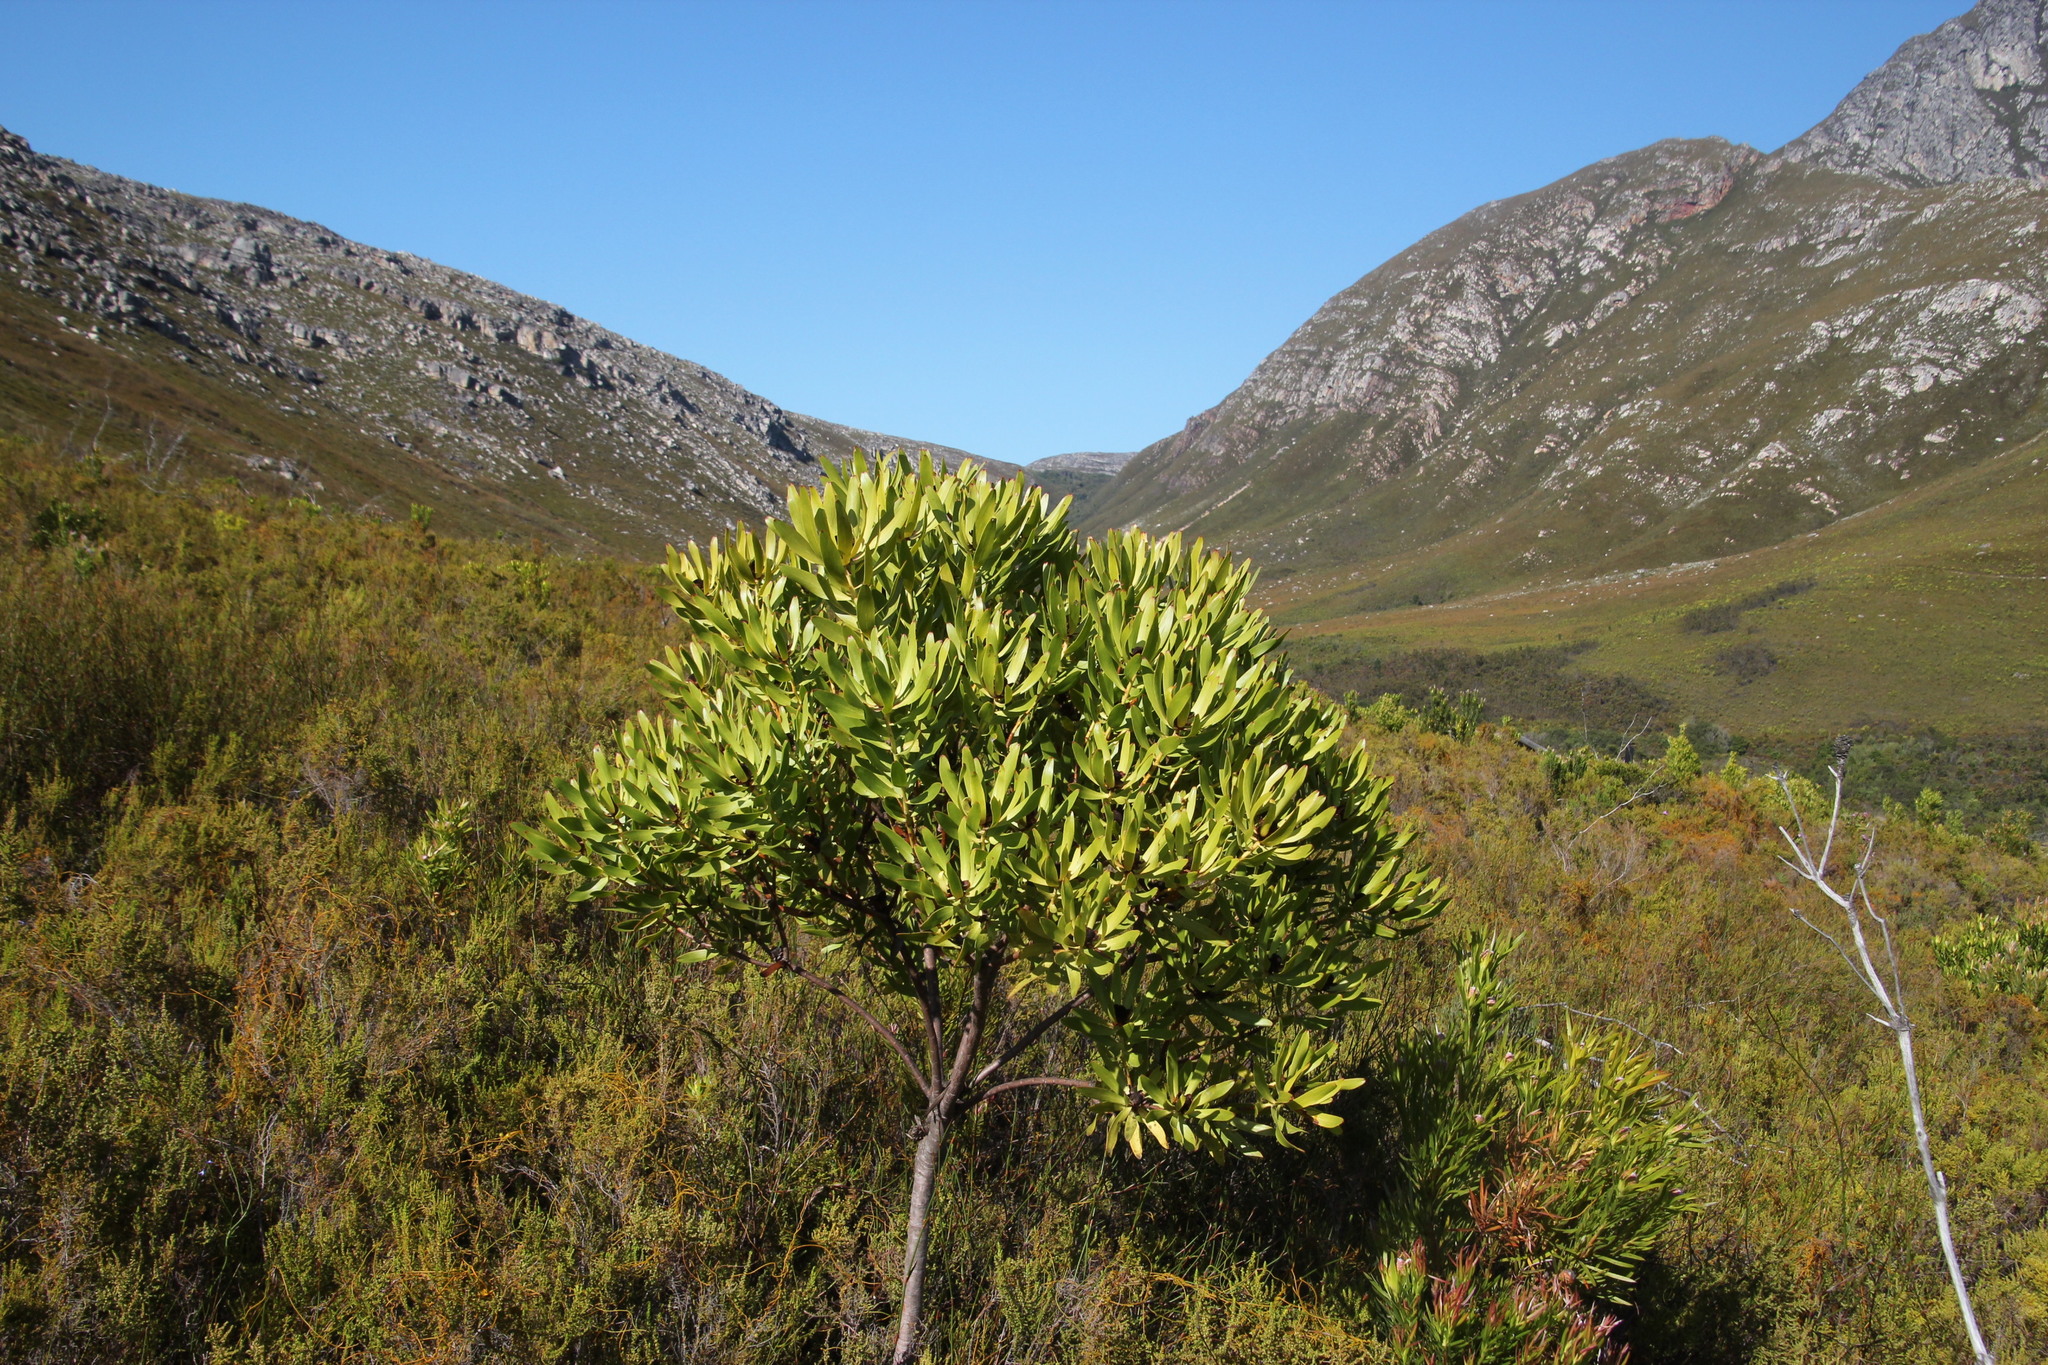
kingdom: Plantae
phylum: Tracheophyta
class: Magnoliopsida
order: Proteales
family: Proteaceae
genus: Leucadendron
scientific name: Leucadendron microcephalum
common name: Oilbract conebush
